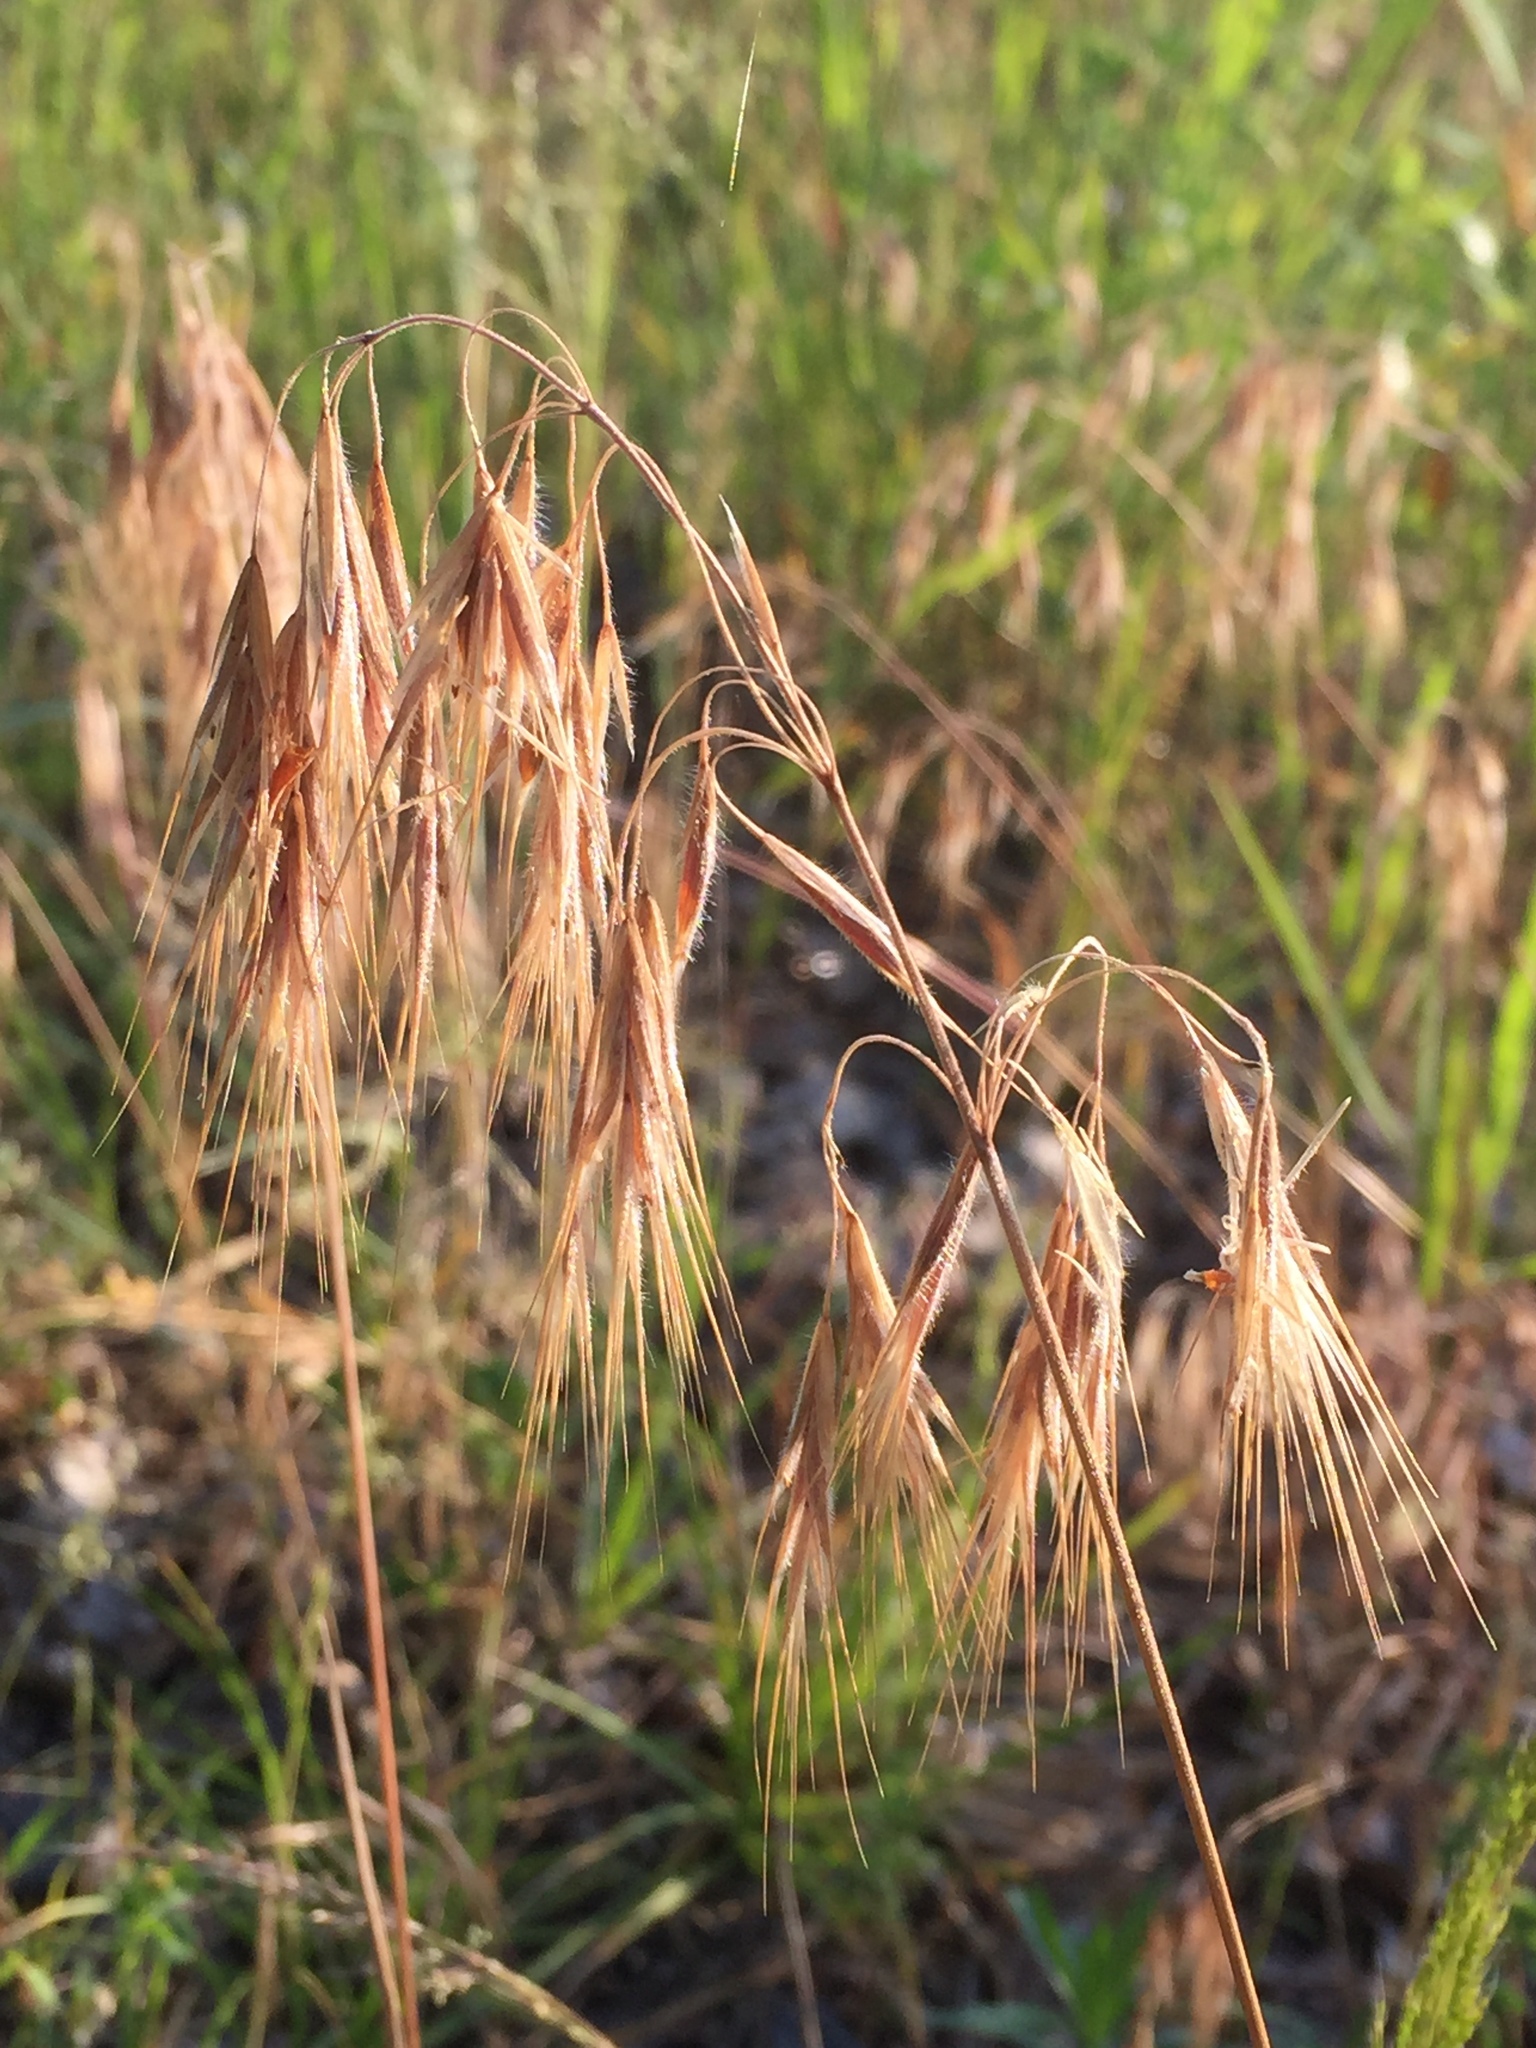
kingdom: Plantae
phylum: Tracheophyta
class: Liliopsida
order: Poales
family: Poaceae
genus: Bromus
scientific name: Bromus tectorum
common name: Cheatgrass
